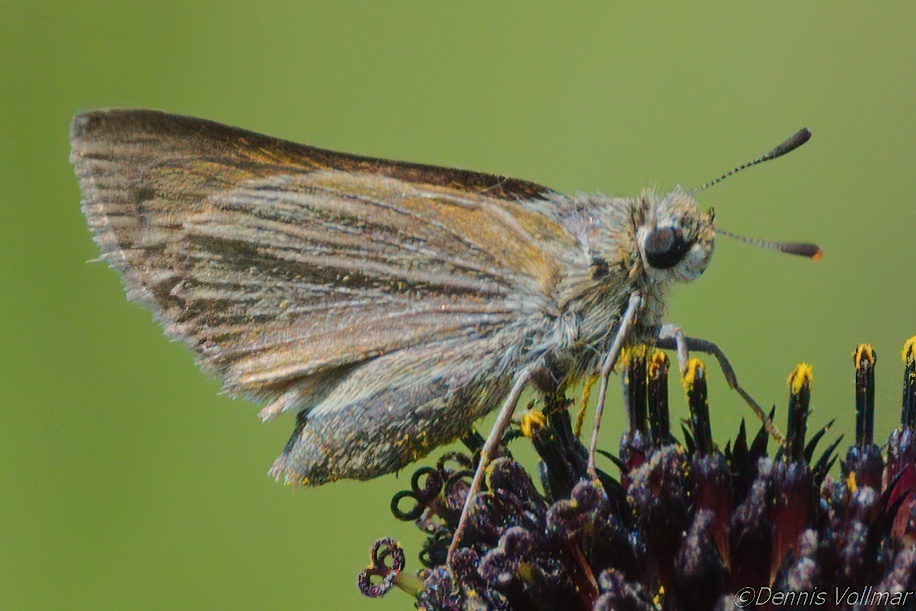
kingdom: Animalia
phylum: Arthropoda
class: Insecta
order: Lepidoptera
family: Hesperiidae
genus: Atrytone
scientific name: Atrytone arogos
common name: Arogos skipper
